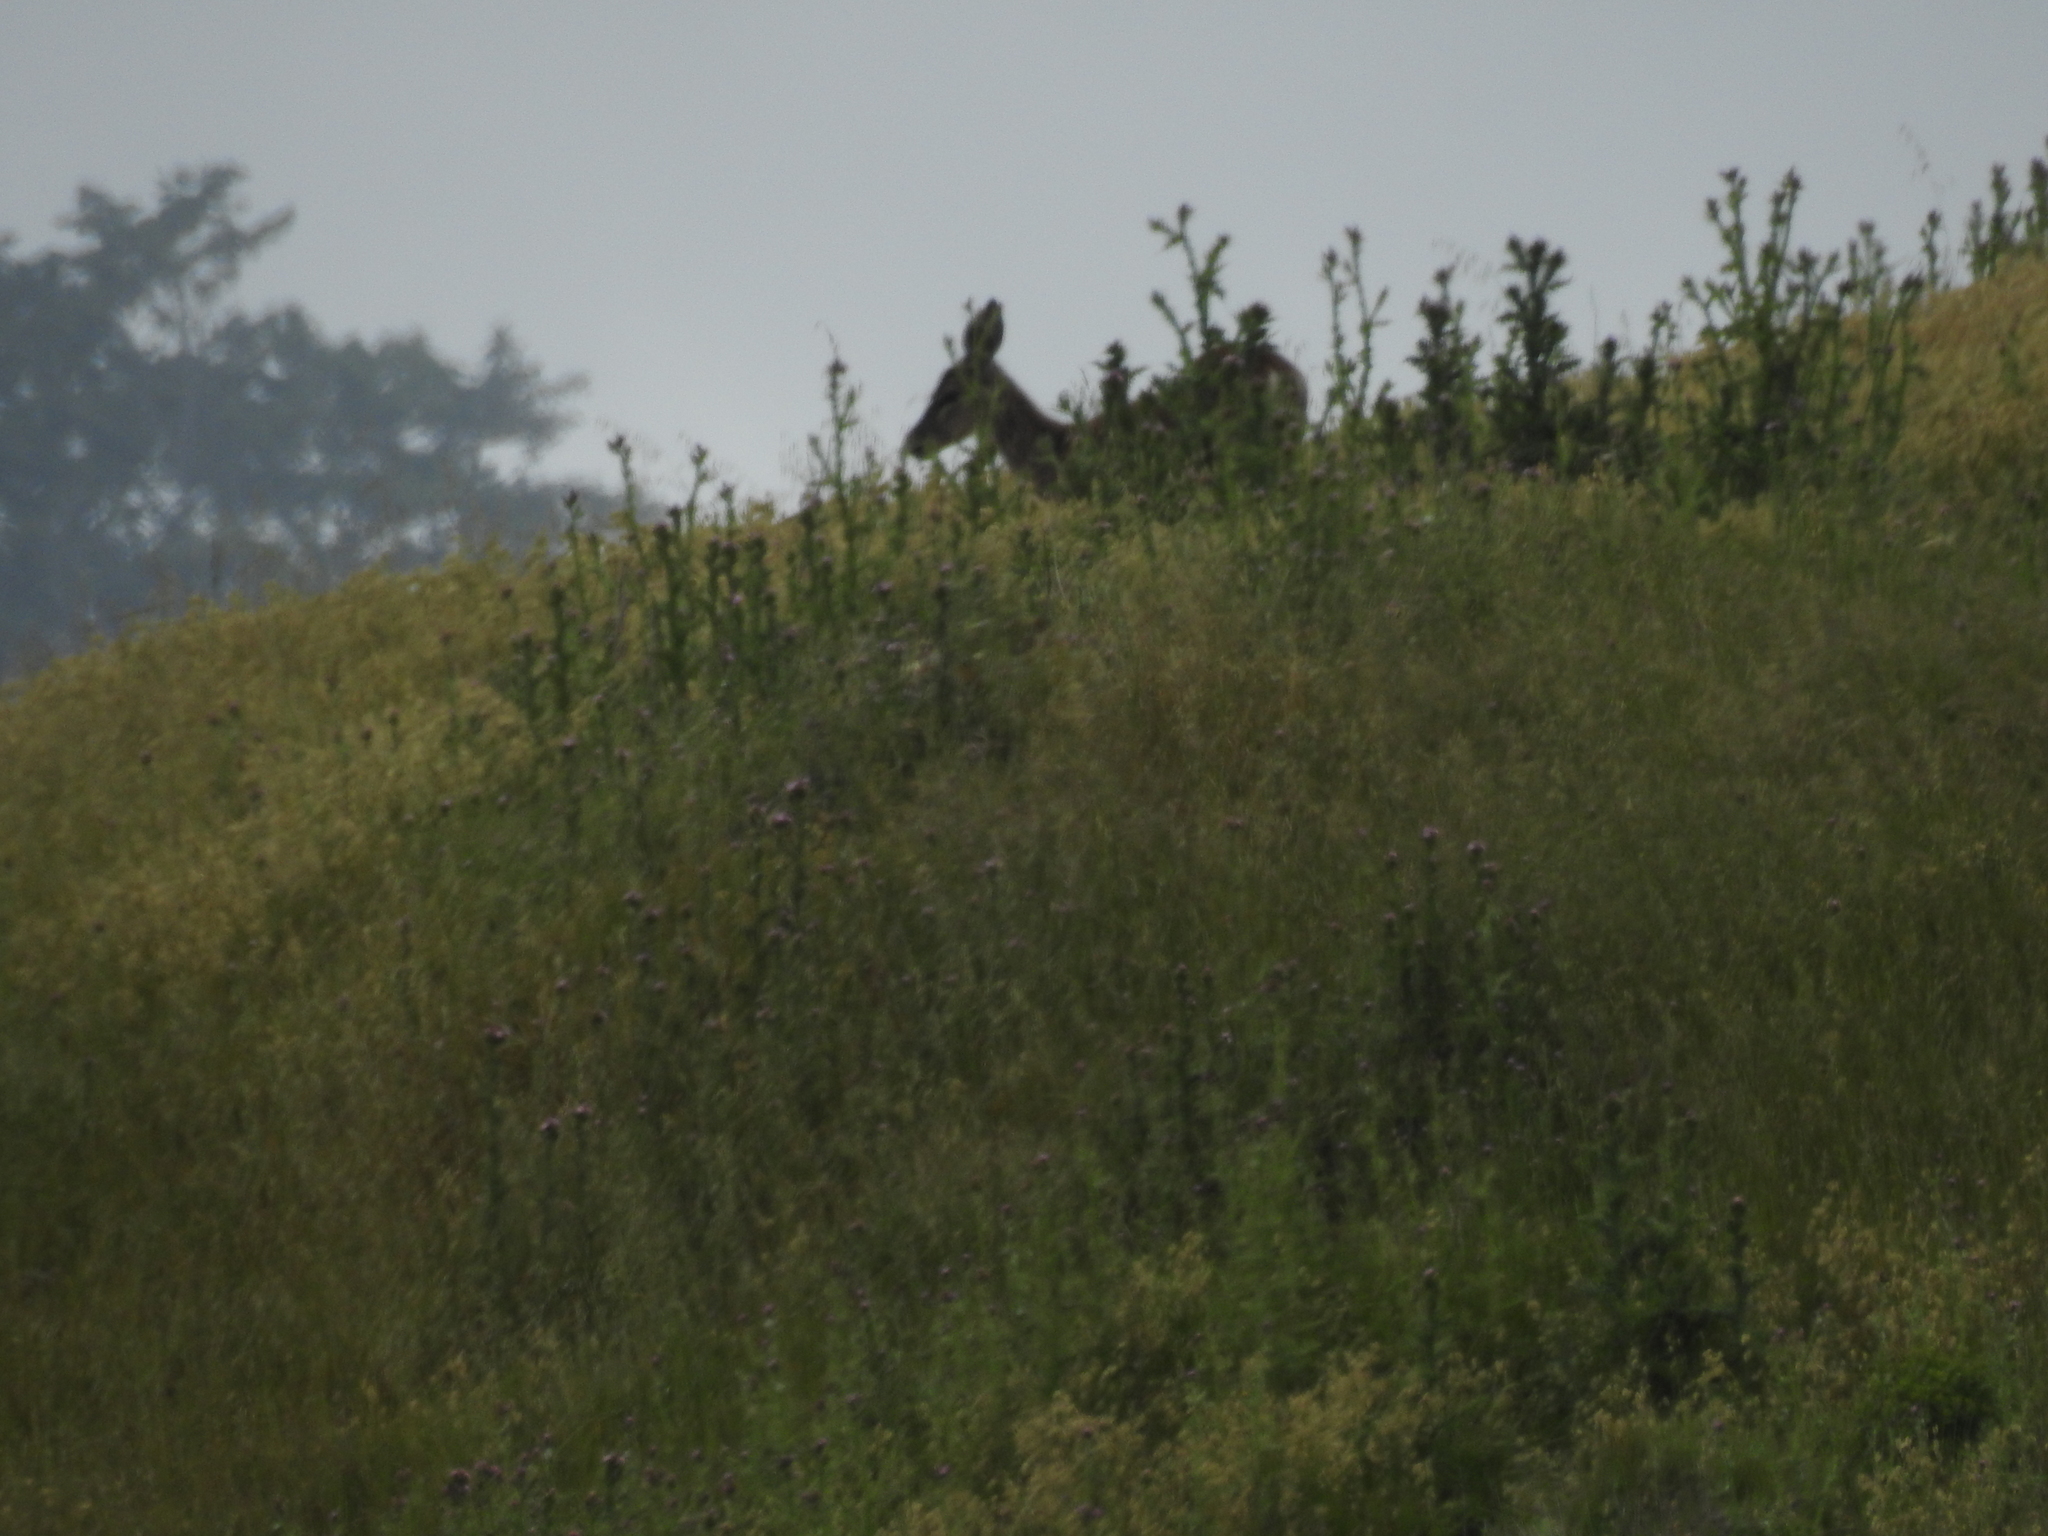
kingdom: Animalia
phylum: Chordata
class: Mammalia
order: Artiodactyla
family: Cervidae
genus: Odocoileus
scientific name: Odocoileus hemionus
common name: Mule deer
